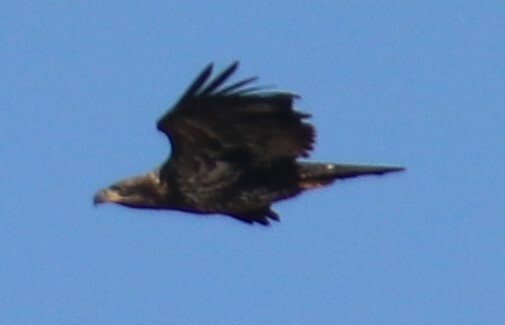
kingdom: Animalia
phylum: Chordata
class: Aves
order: Accipitriformes
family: Accipitridae
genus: Haliaeetus
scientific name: Haliaeetus leucocephalus
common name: Bald eagle
